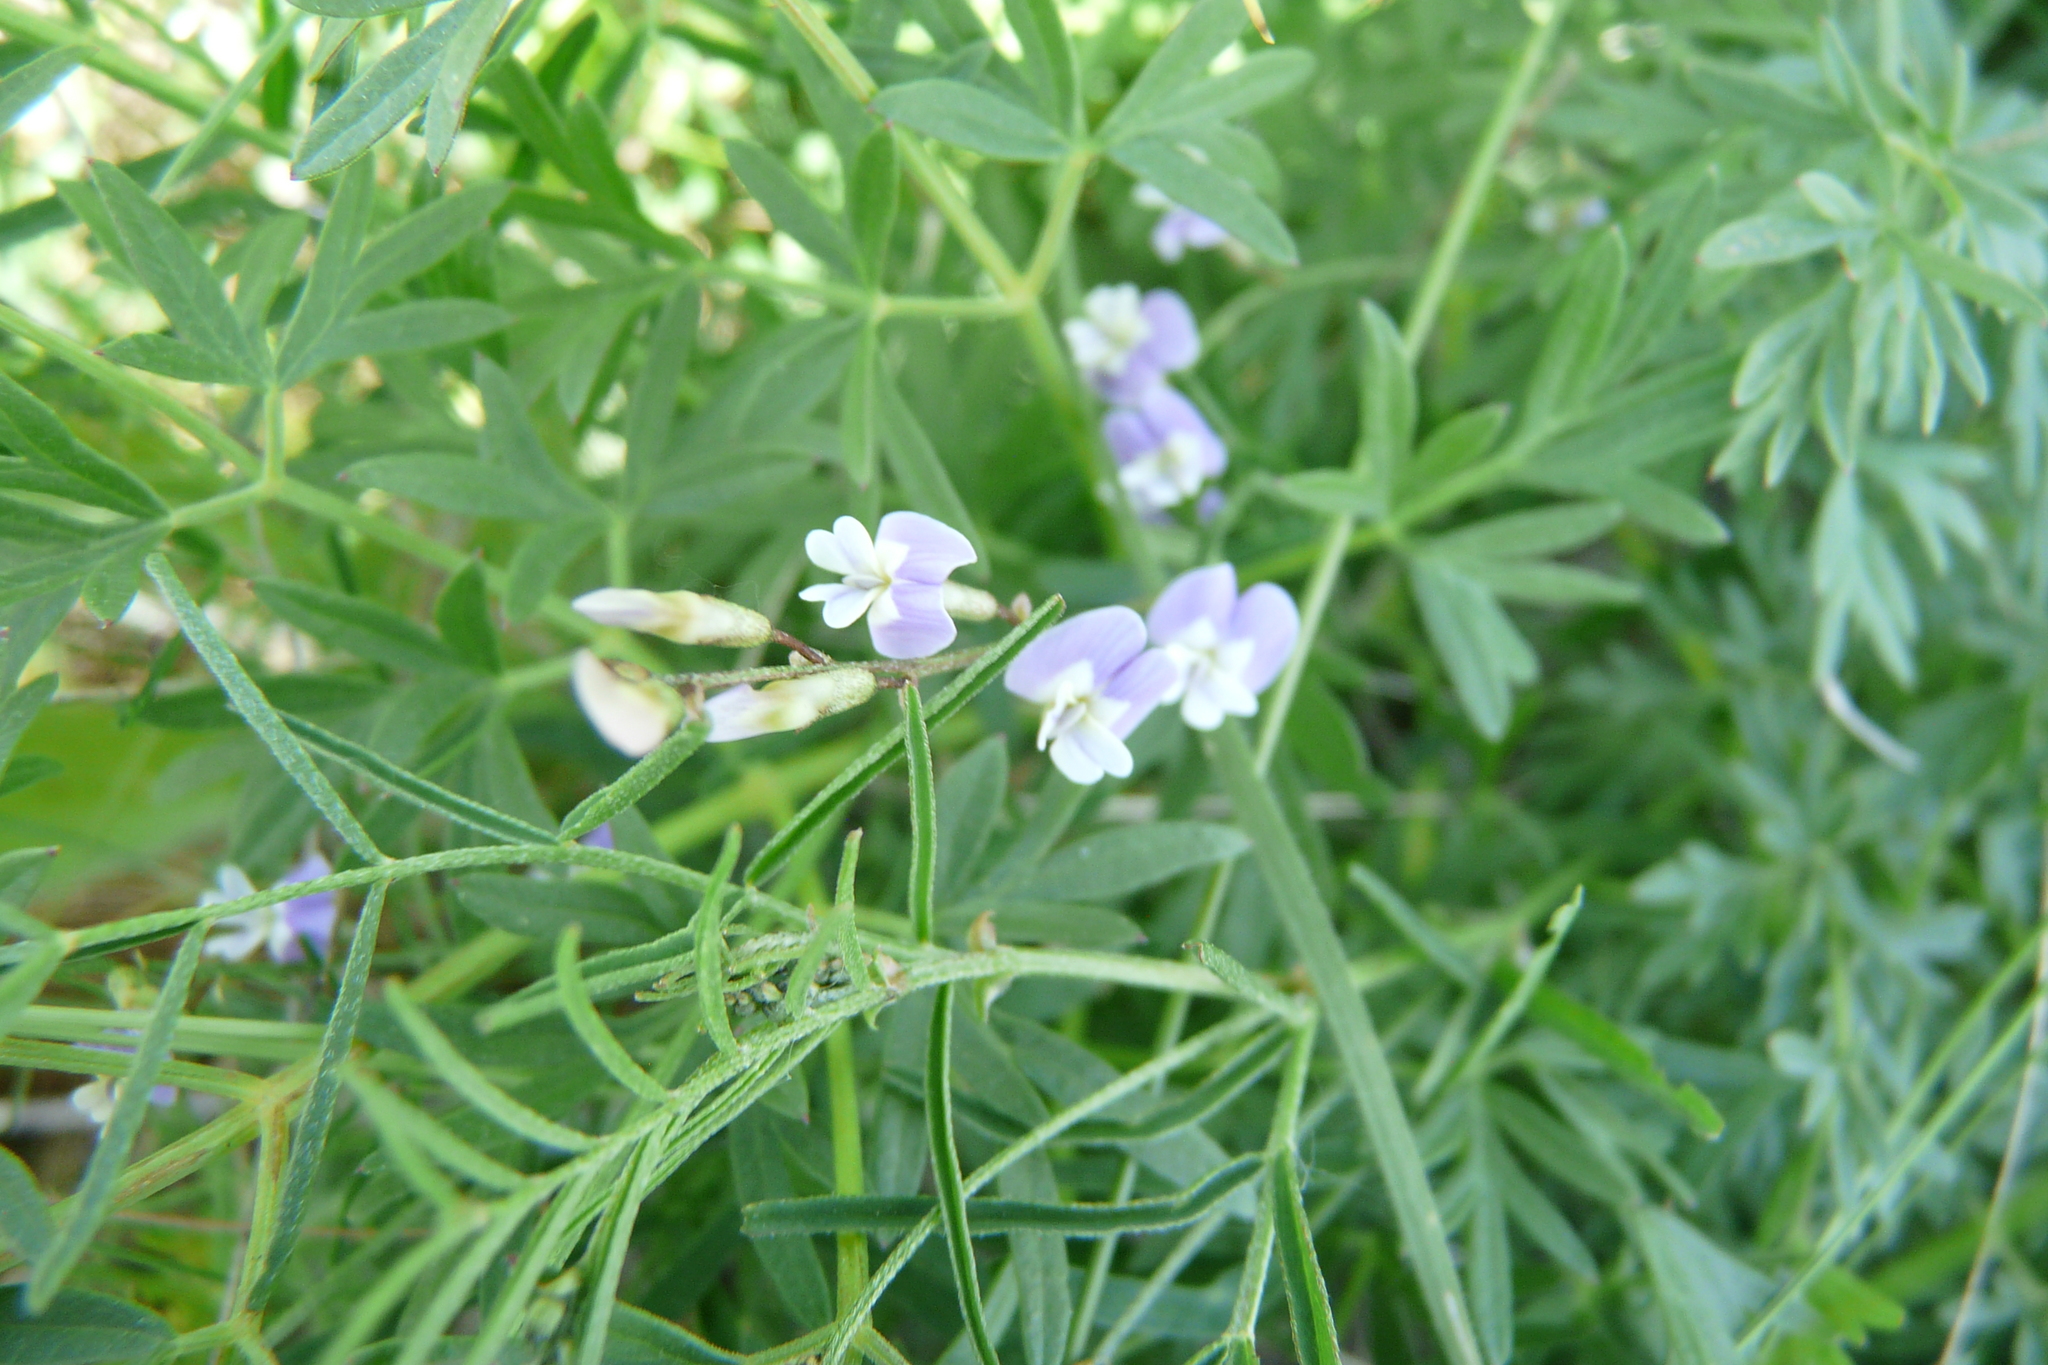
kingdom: Plantae
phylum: Tracheophyta
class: Magnoliopsida
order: Fabales
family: Fabaceae
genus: Astragalus
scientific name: Astragalus austriacus
